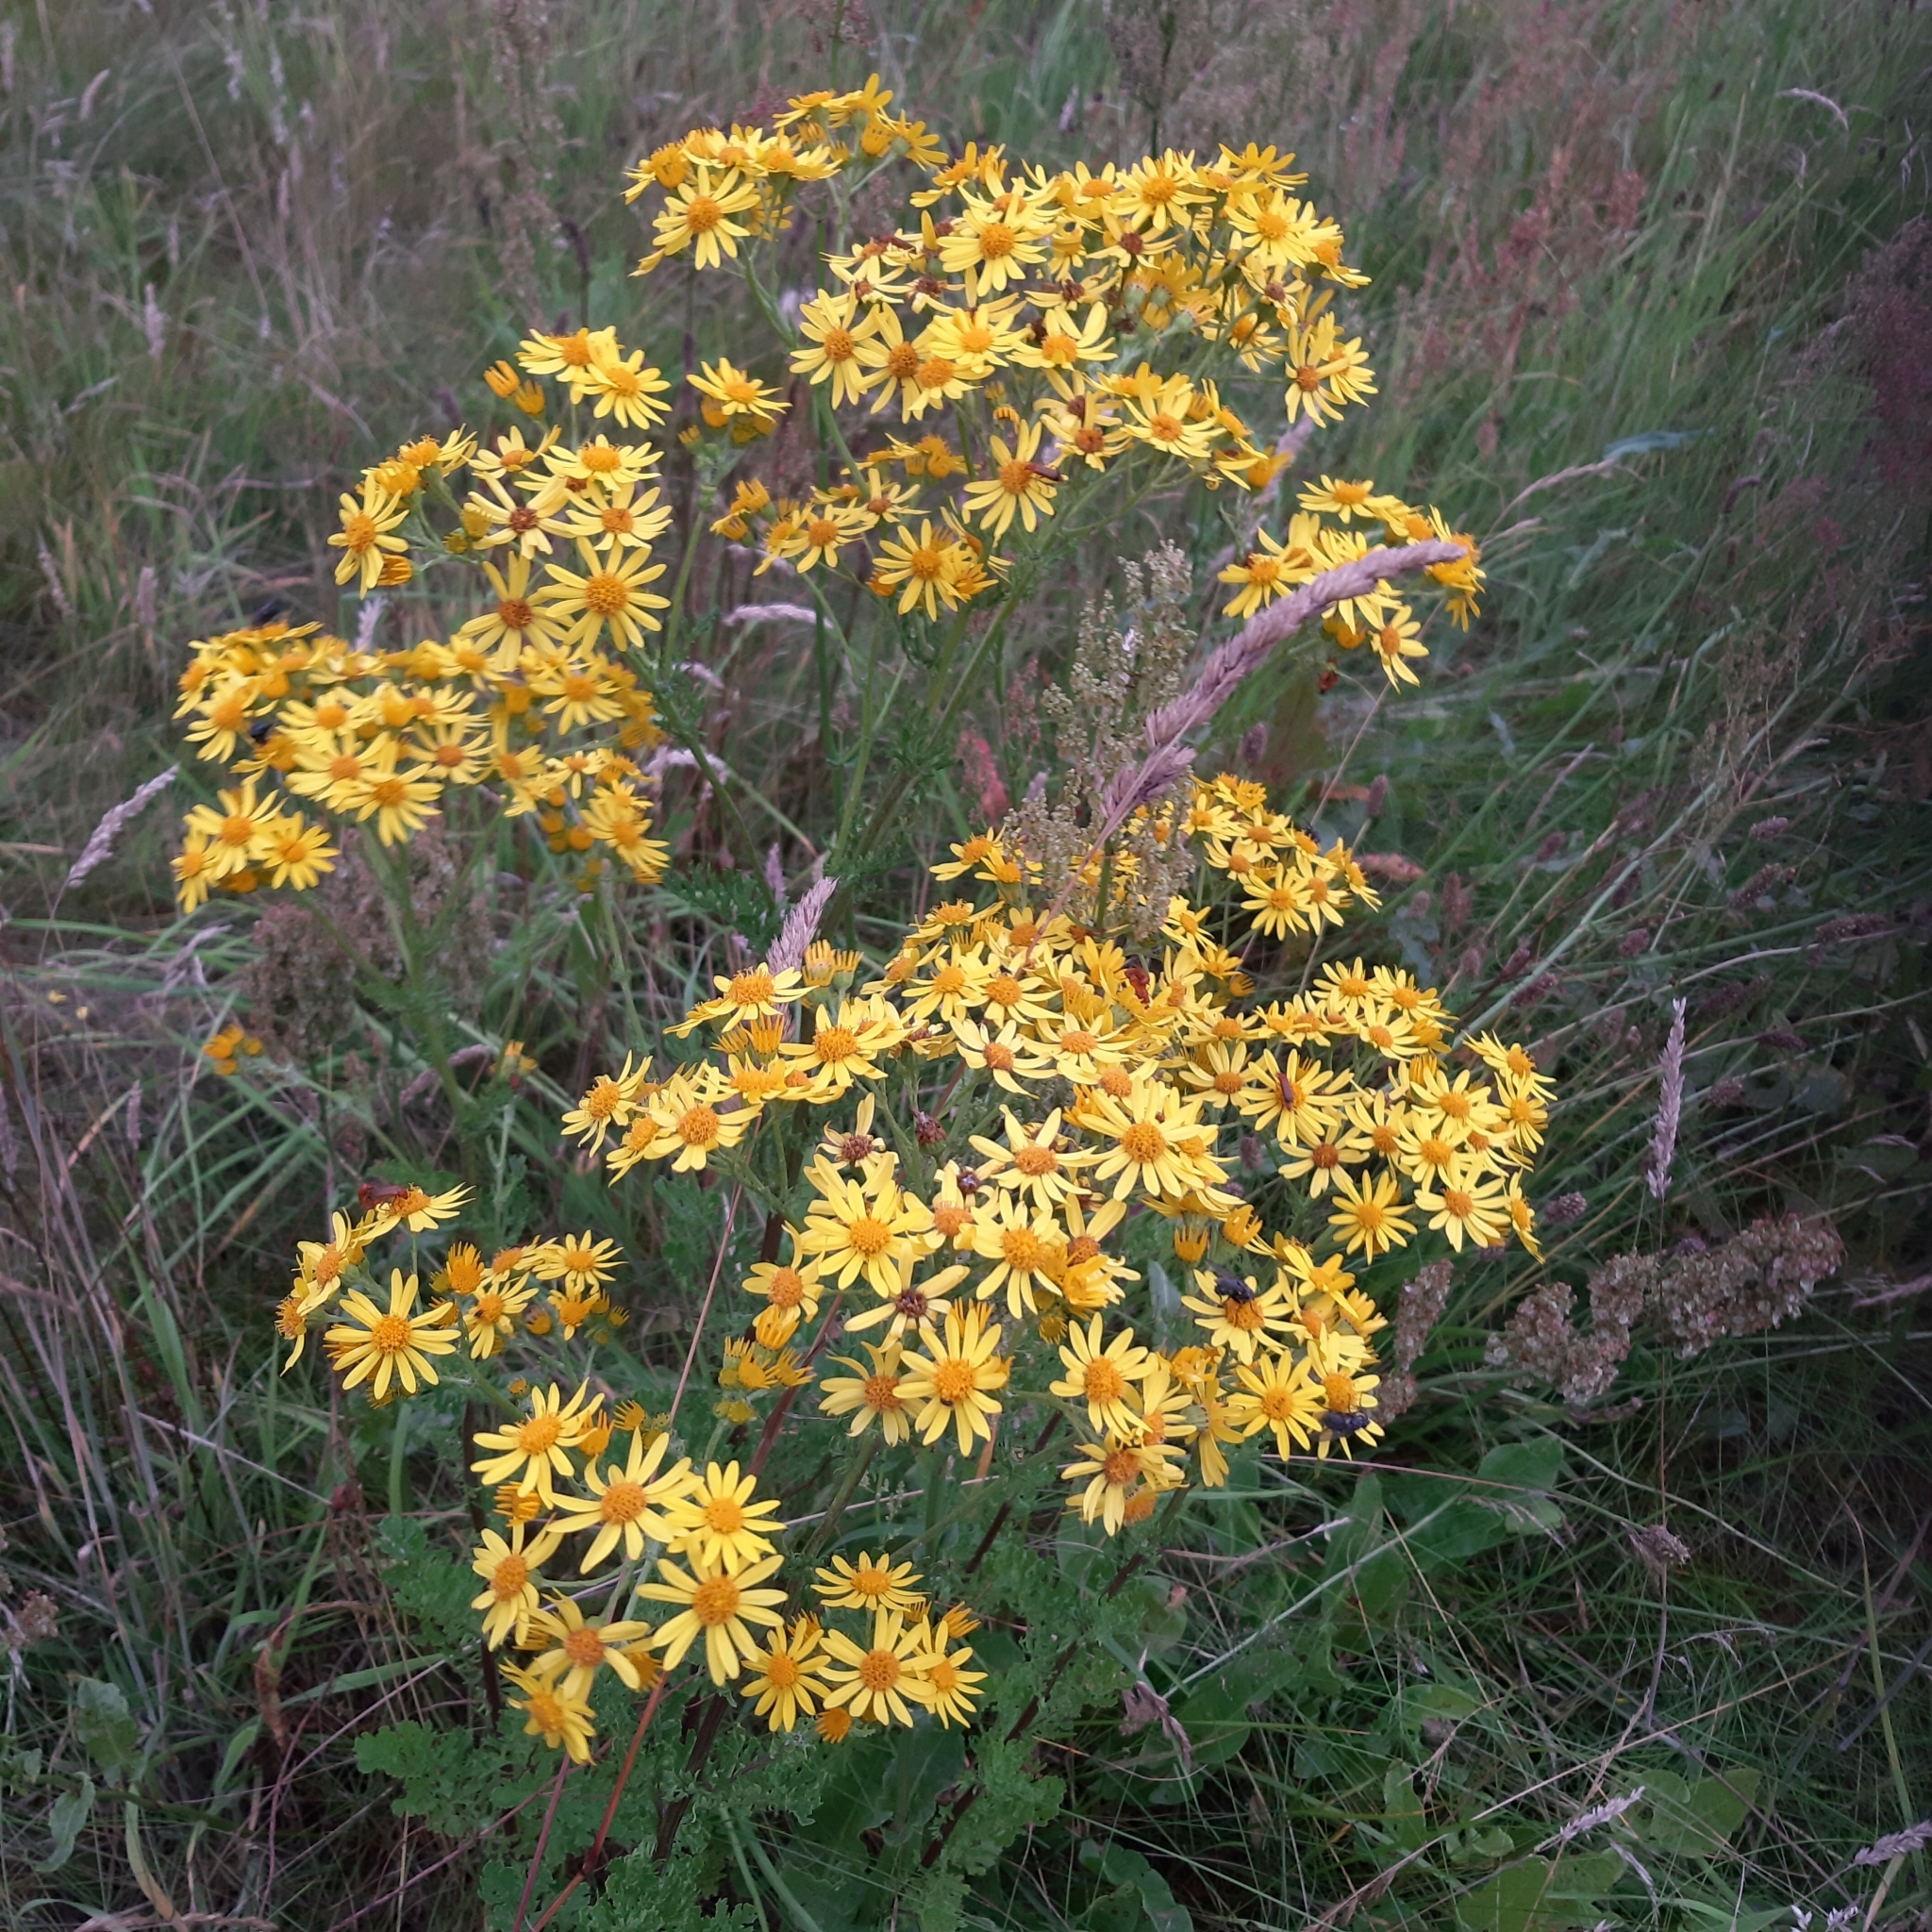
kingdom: Plantae
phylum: Tracheophyta
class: Magnoliopsida
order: Asterales
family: Asteraceae
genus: Jacobaea
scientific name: Jacobaea vulgaris
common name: Stinking willie
